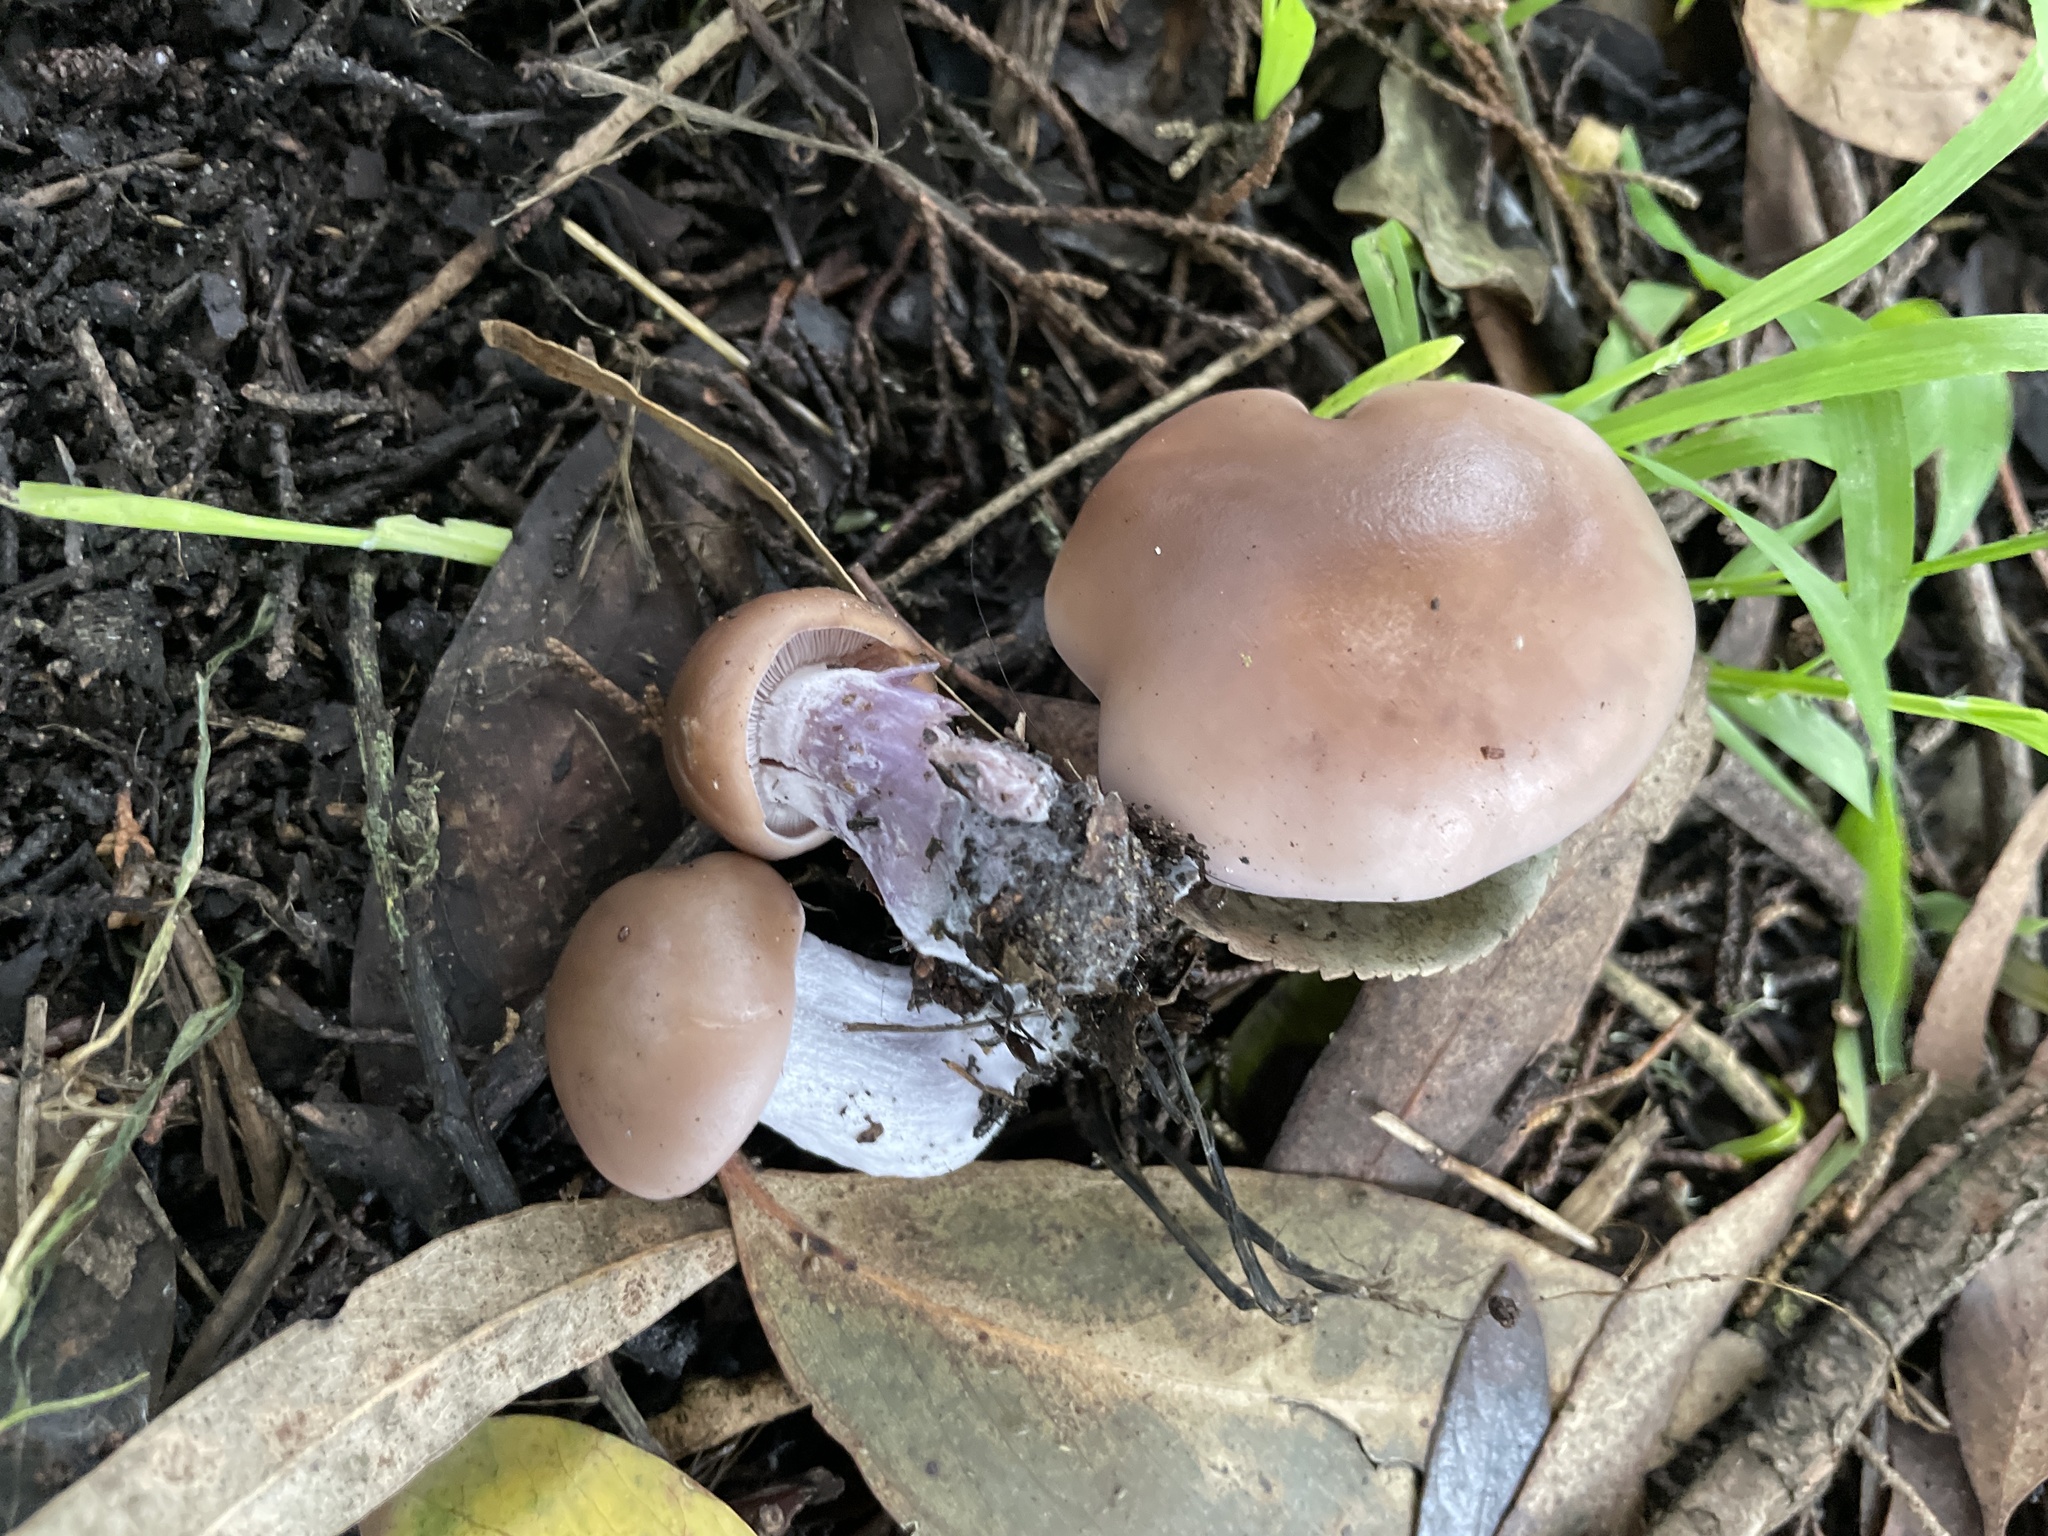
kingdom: Fungi
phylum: Basidiomycota
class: Agaricomycetes
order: Agaricales
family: Tricholomataceae
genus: Collybia
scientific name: Collybia
